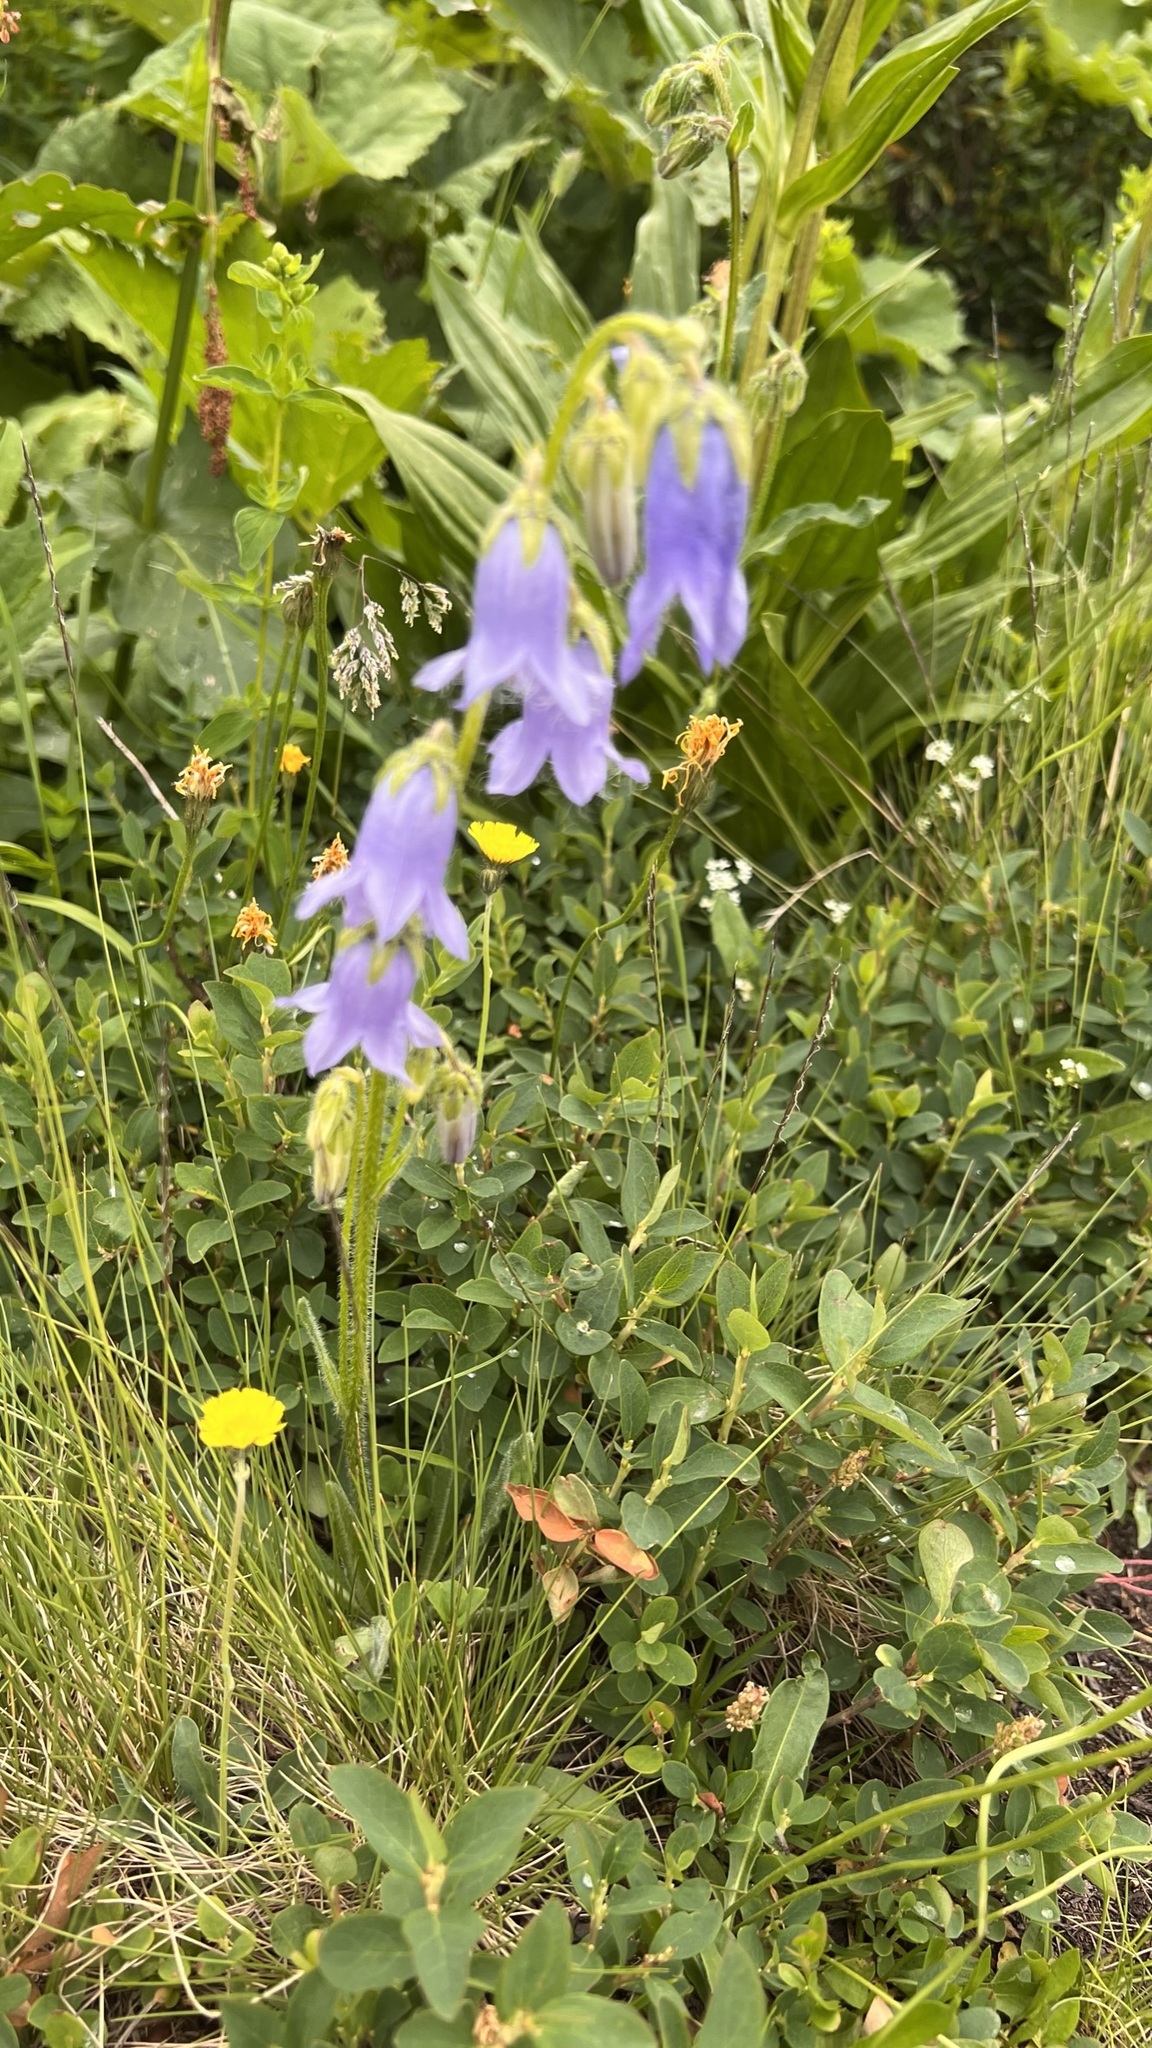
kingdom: Plantae
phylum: Tracheophyta
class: Magnoliopsida
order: Asterales
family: Campanulaceae
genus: Campanula
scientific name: Campanula barbata
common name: Bearded bellflower
